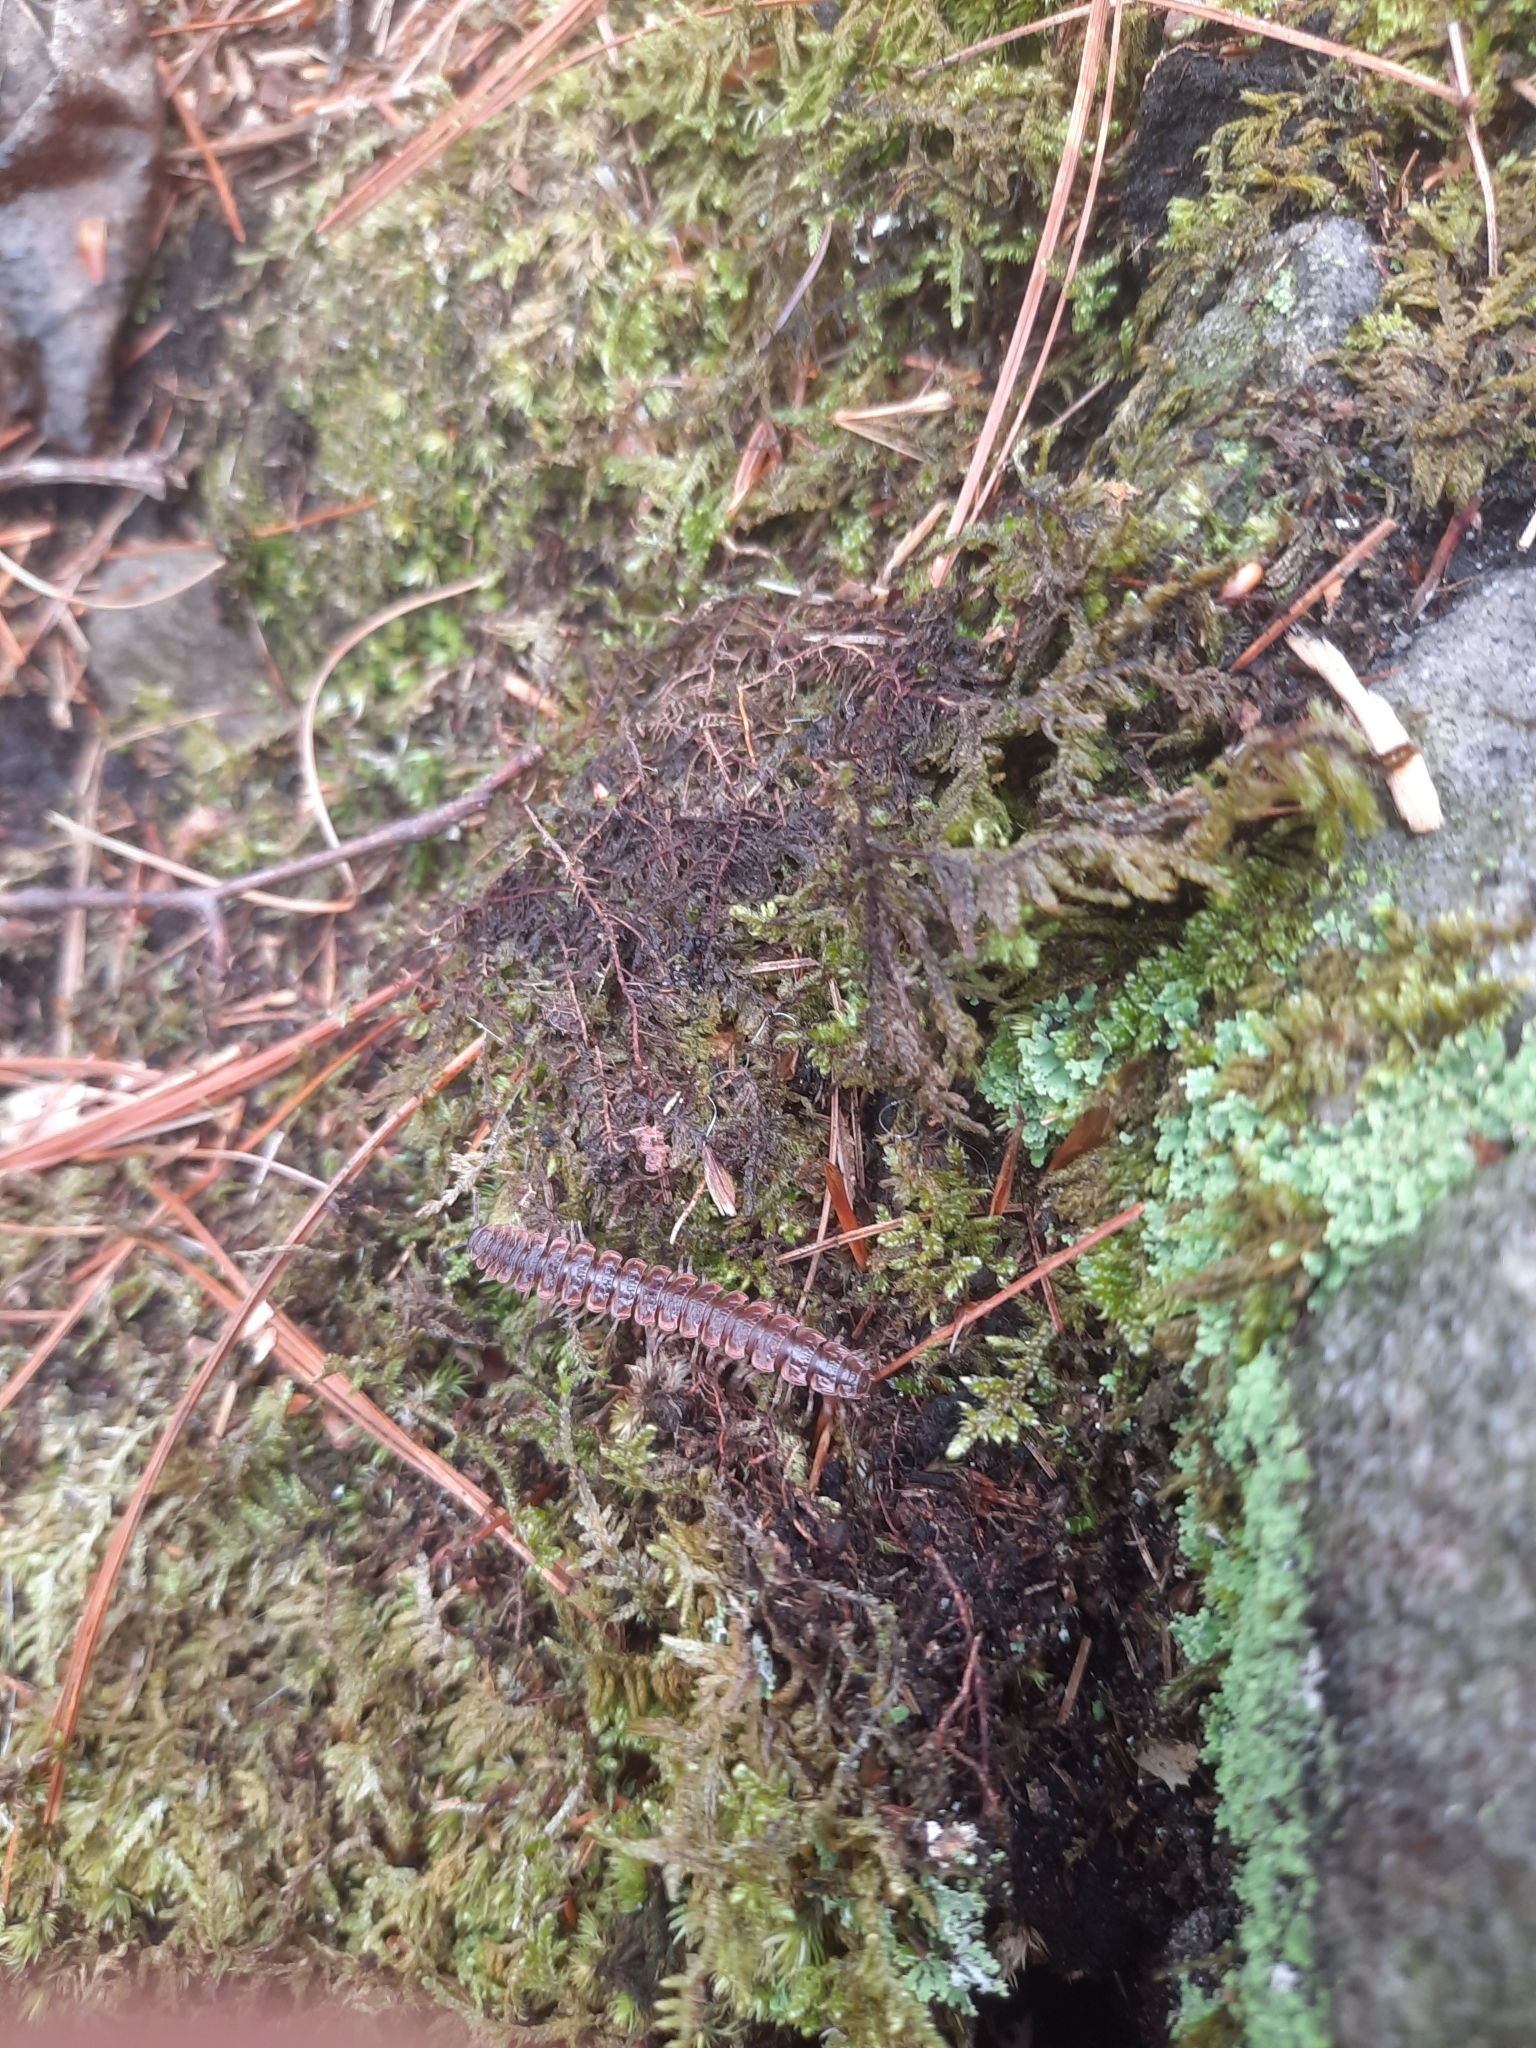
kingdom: Animalia
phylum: Arthropoda
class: Diplopoda
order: Polydesmida
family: Polydesmidae
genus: Pseudopolydesmus
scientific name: Pseudopolydesmus serratus
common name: Common pink flat-back millipede
